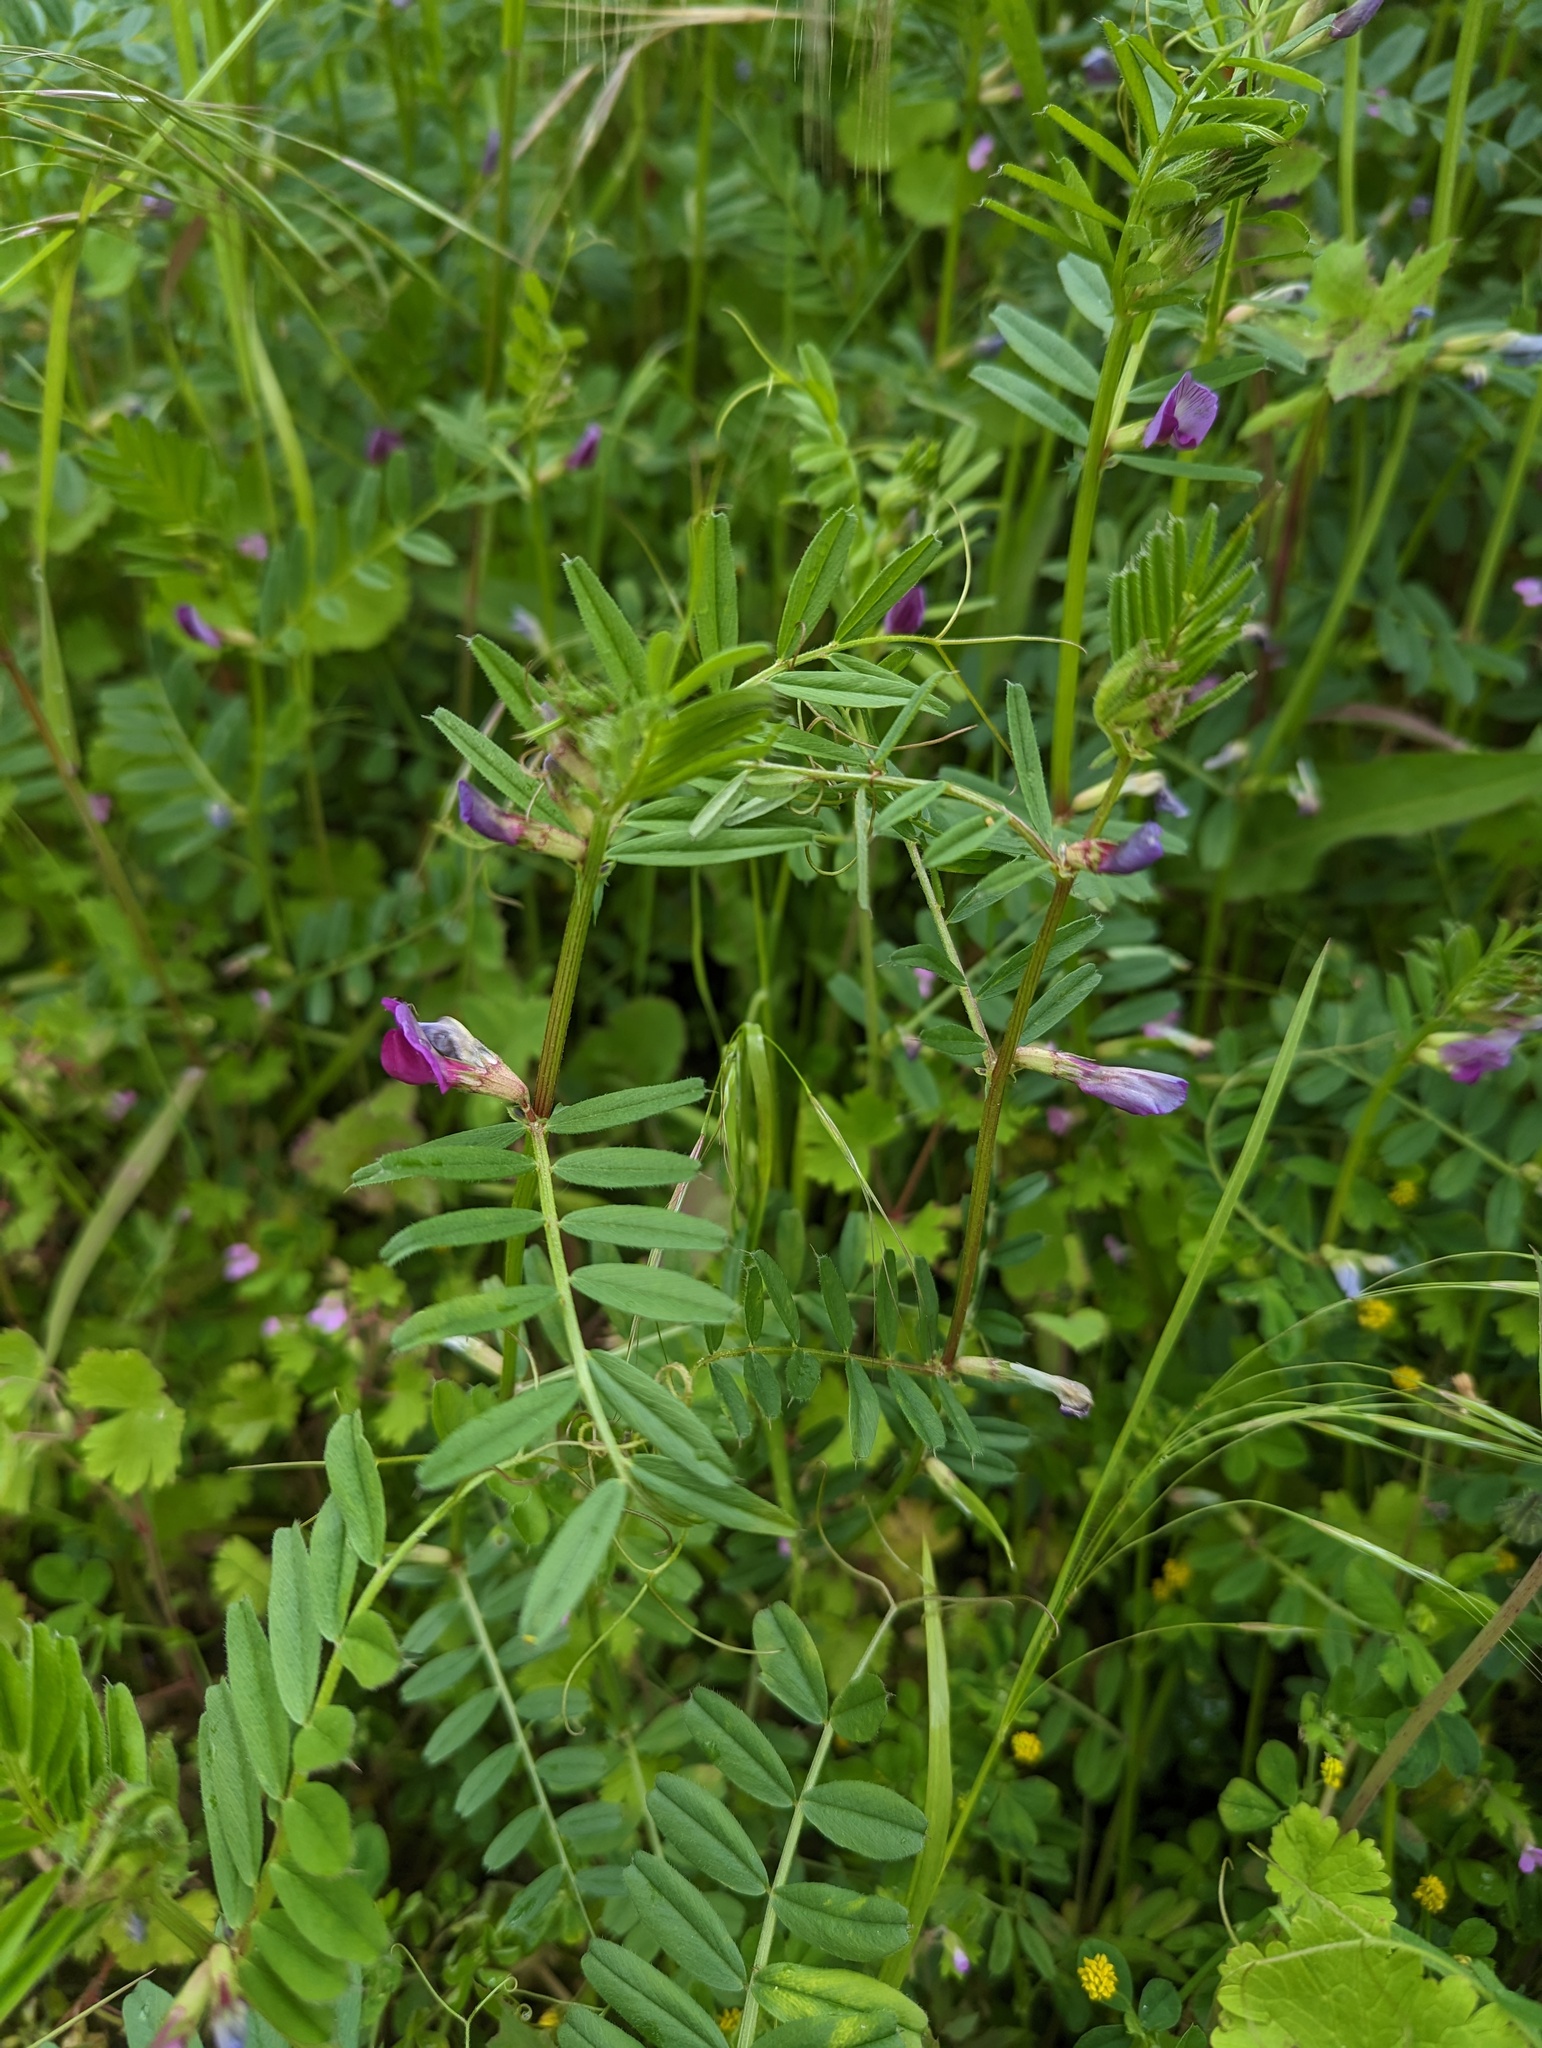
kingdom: Plantae
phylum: Tracheophyta
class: Magnoliopsida
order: Fabales
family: Fabaceae
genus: Vicia
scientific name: Vicia sativa
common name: Garden vetch
